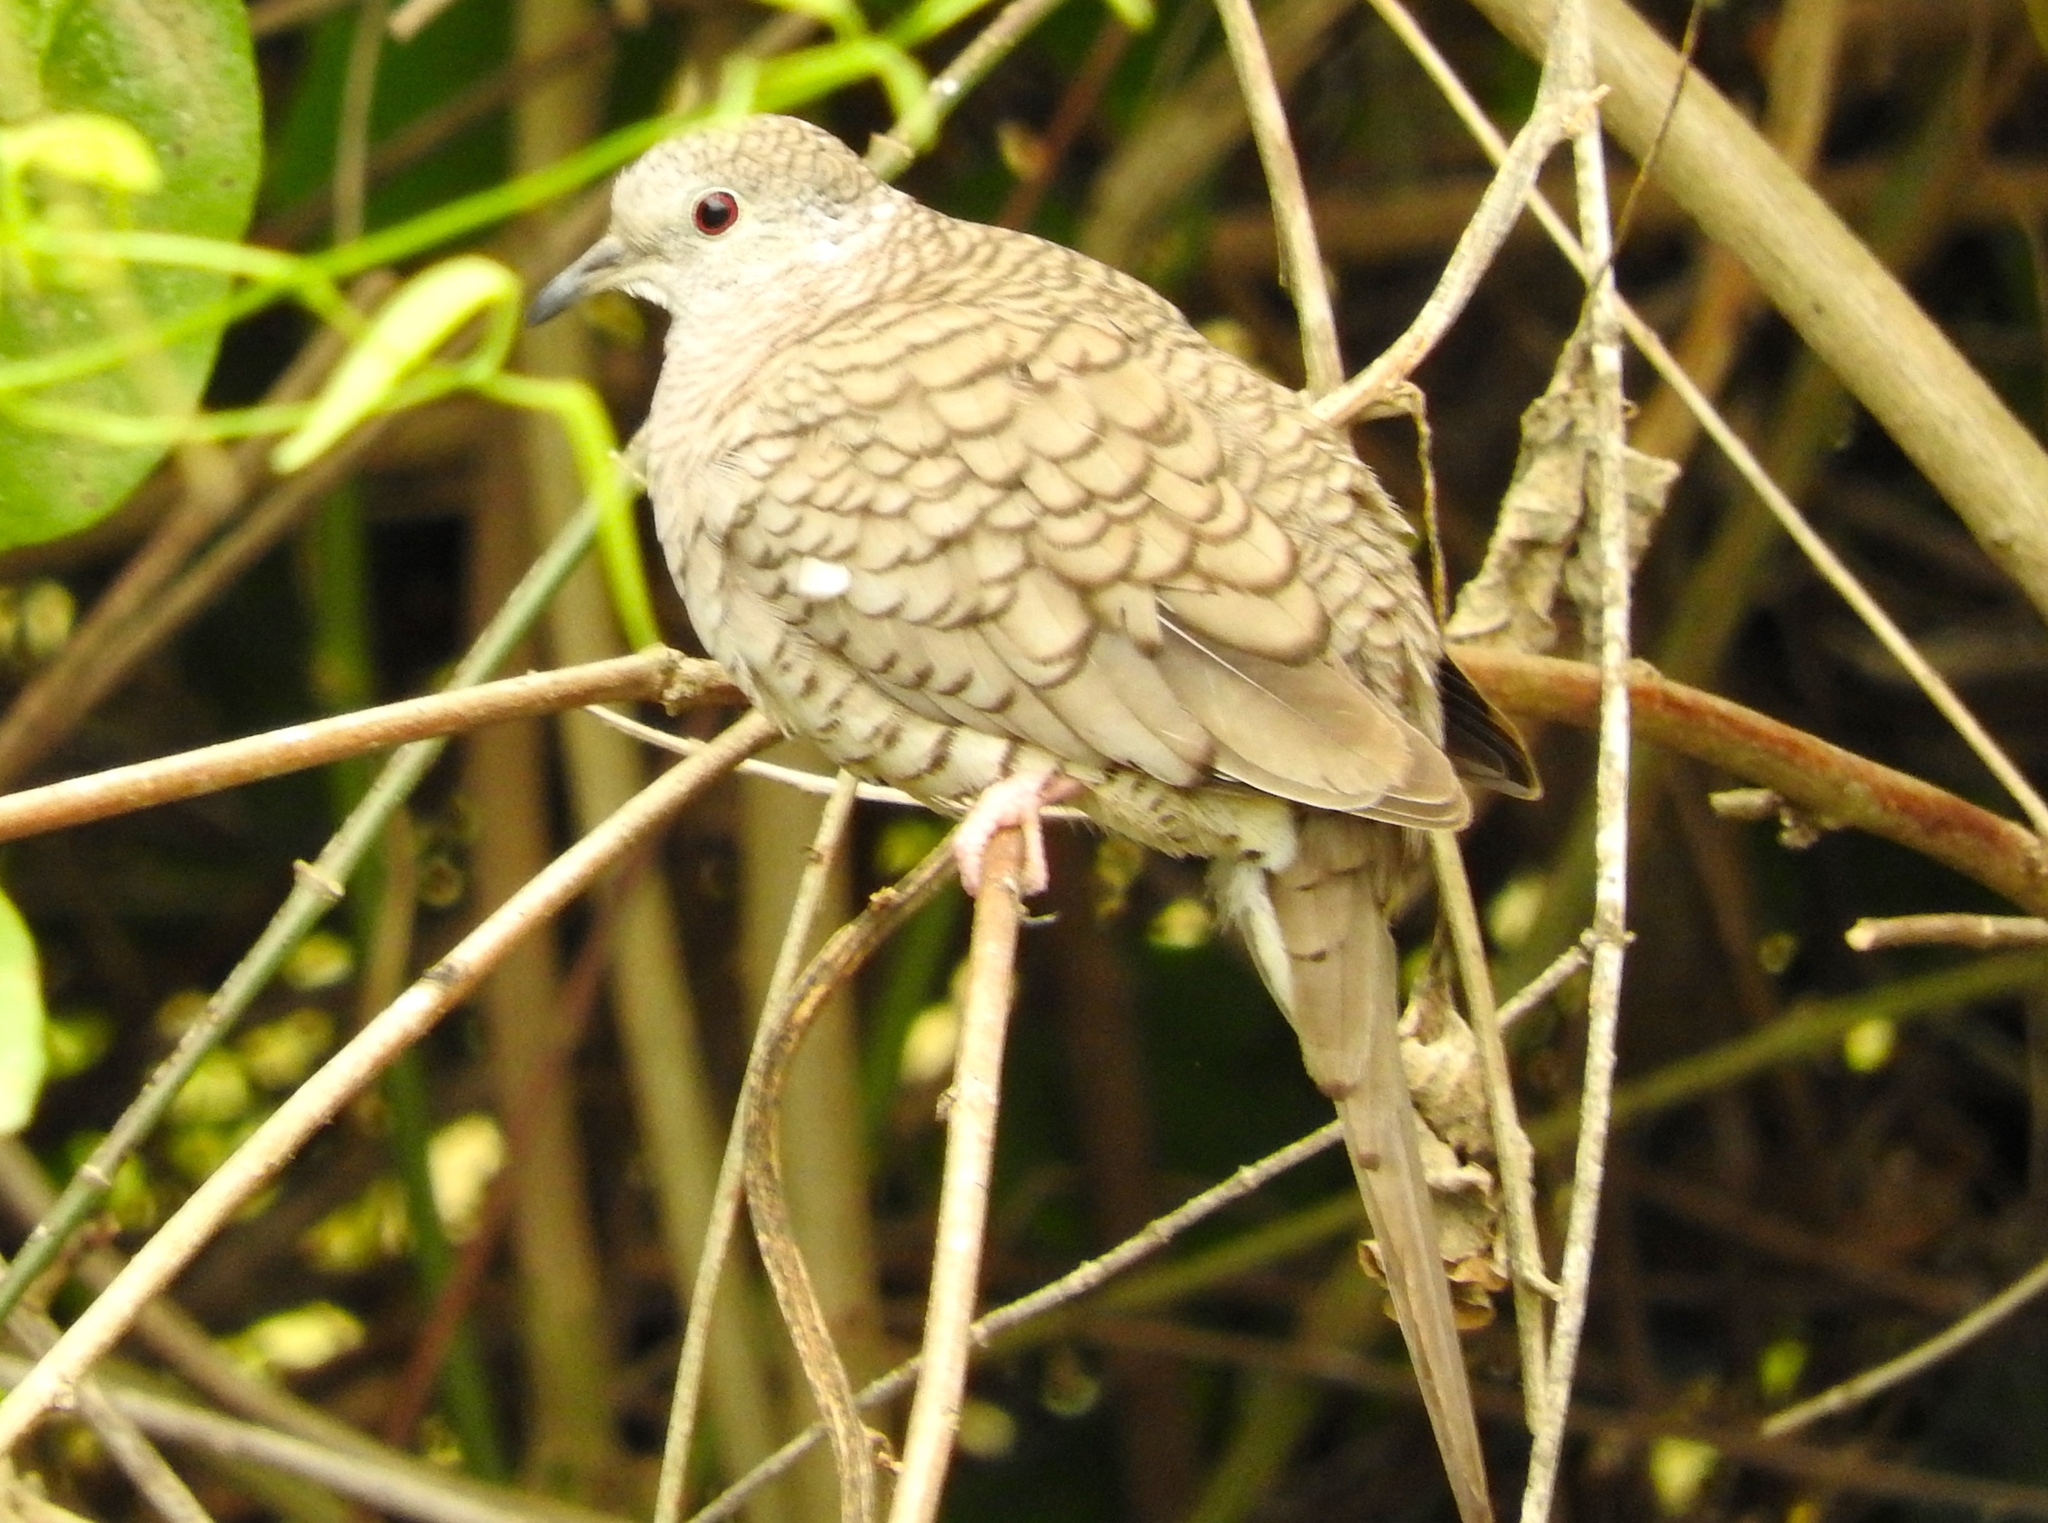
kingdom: Animalia
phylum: Chordata
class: Aves
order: Columbiformes
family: Columbidae
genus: Columbina
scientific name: Columbina inca
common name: Inca dove
